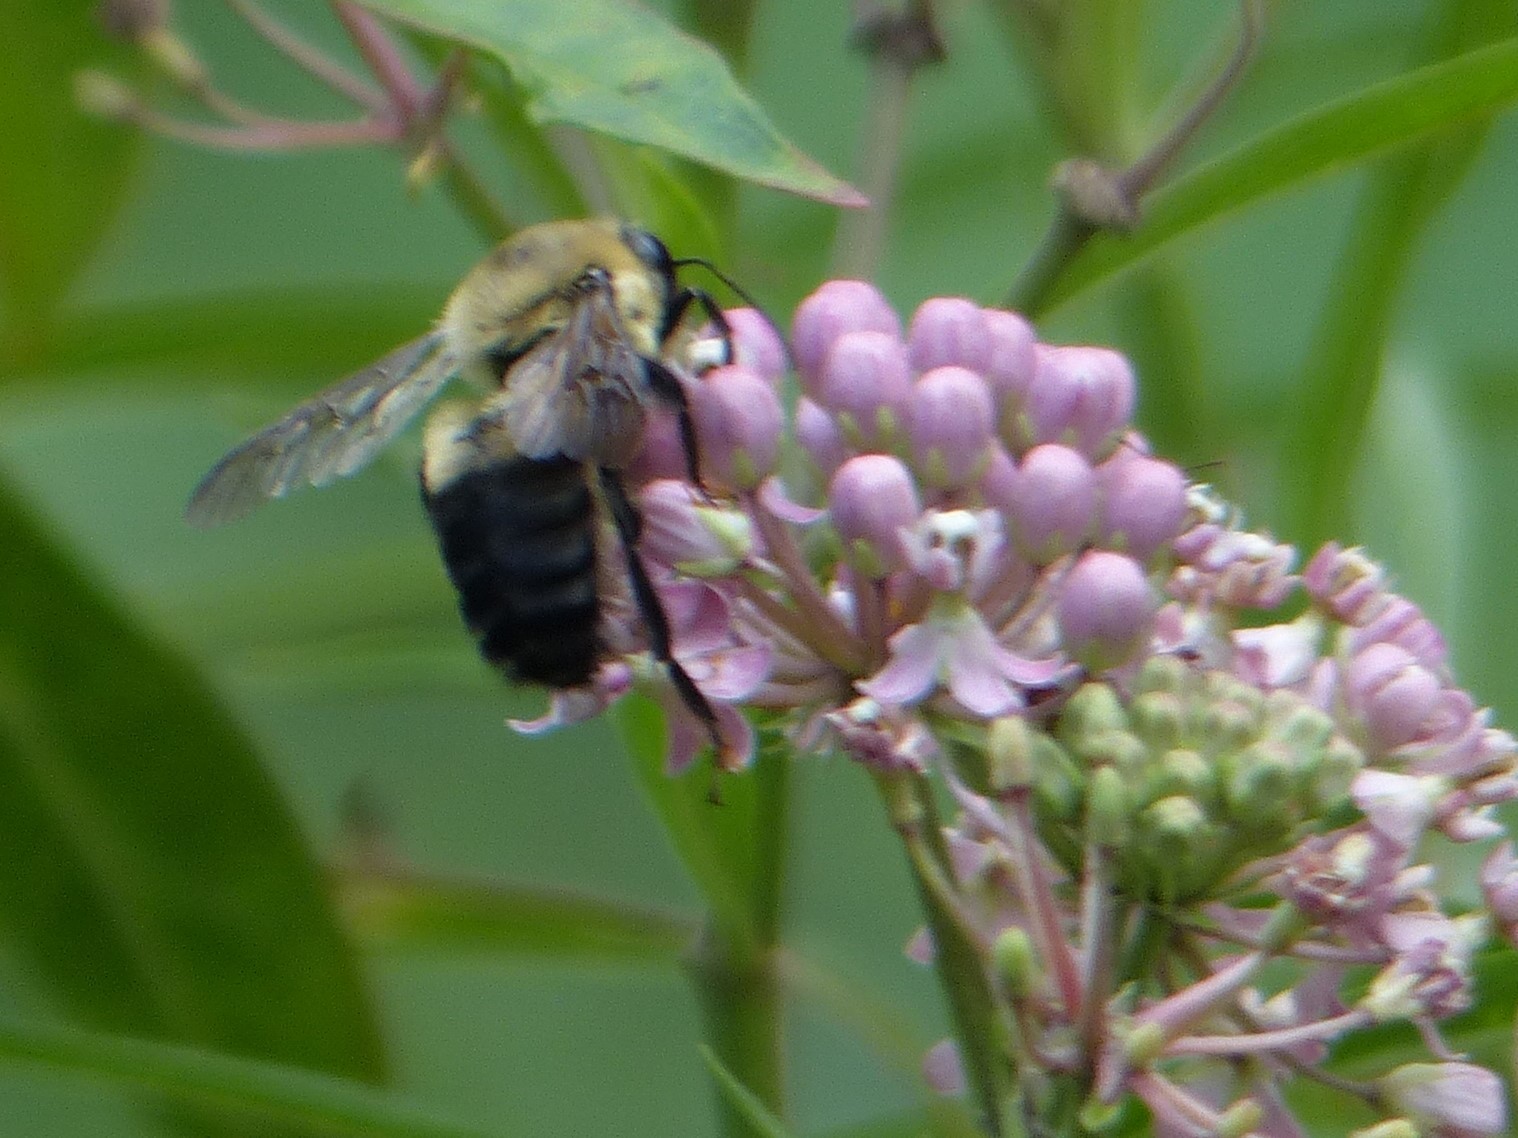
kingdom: Animalia
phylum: Arthropoda
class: Insecta
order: Hymenoptera
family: Apidae
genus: Bombus
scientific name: Bombus griseocollis
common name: Brown-belted bumble bee
